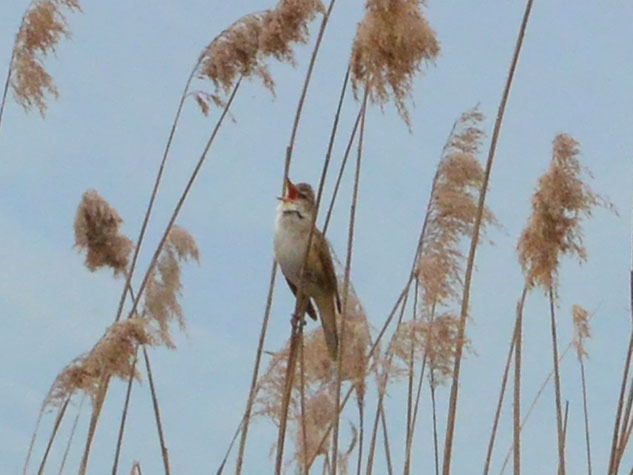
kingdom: Animalia
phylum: Chordata
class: Aves
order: Passeriformes
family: Acrocephalidae
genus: Acrocephalus
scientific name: Acrocephalus arundinaceus
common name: Great reed warbler
